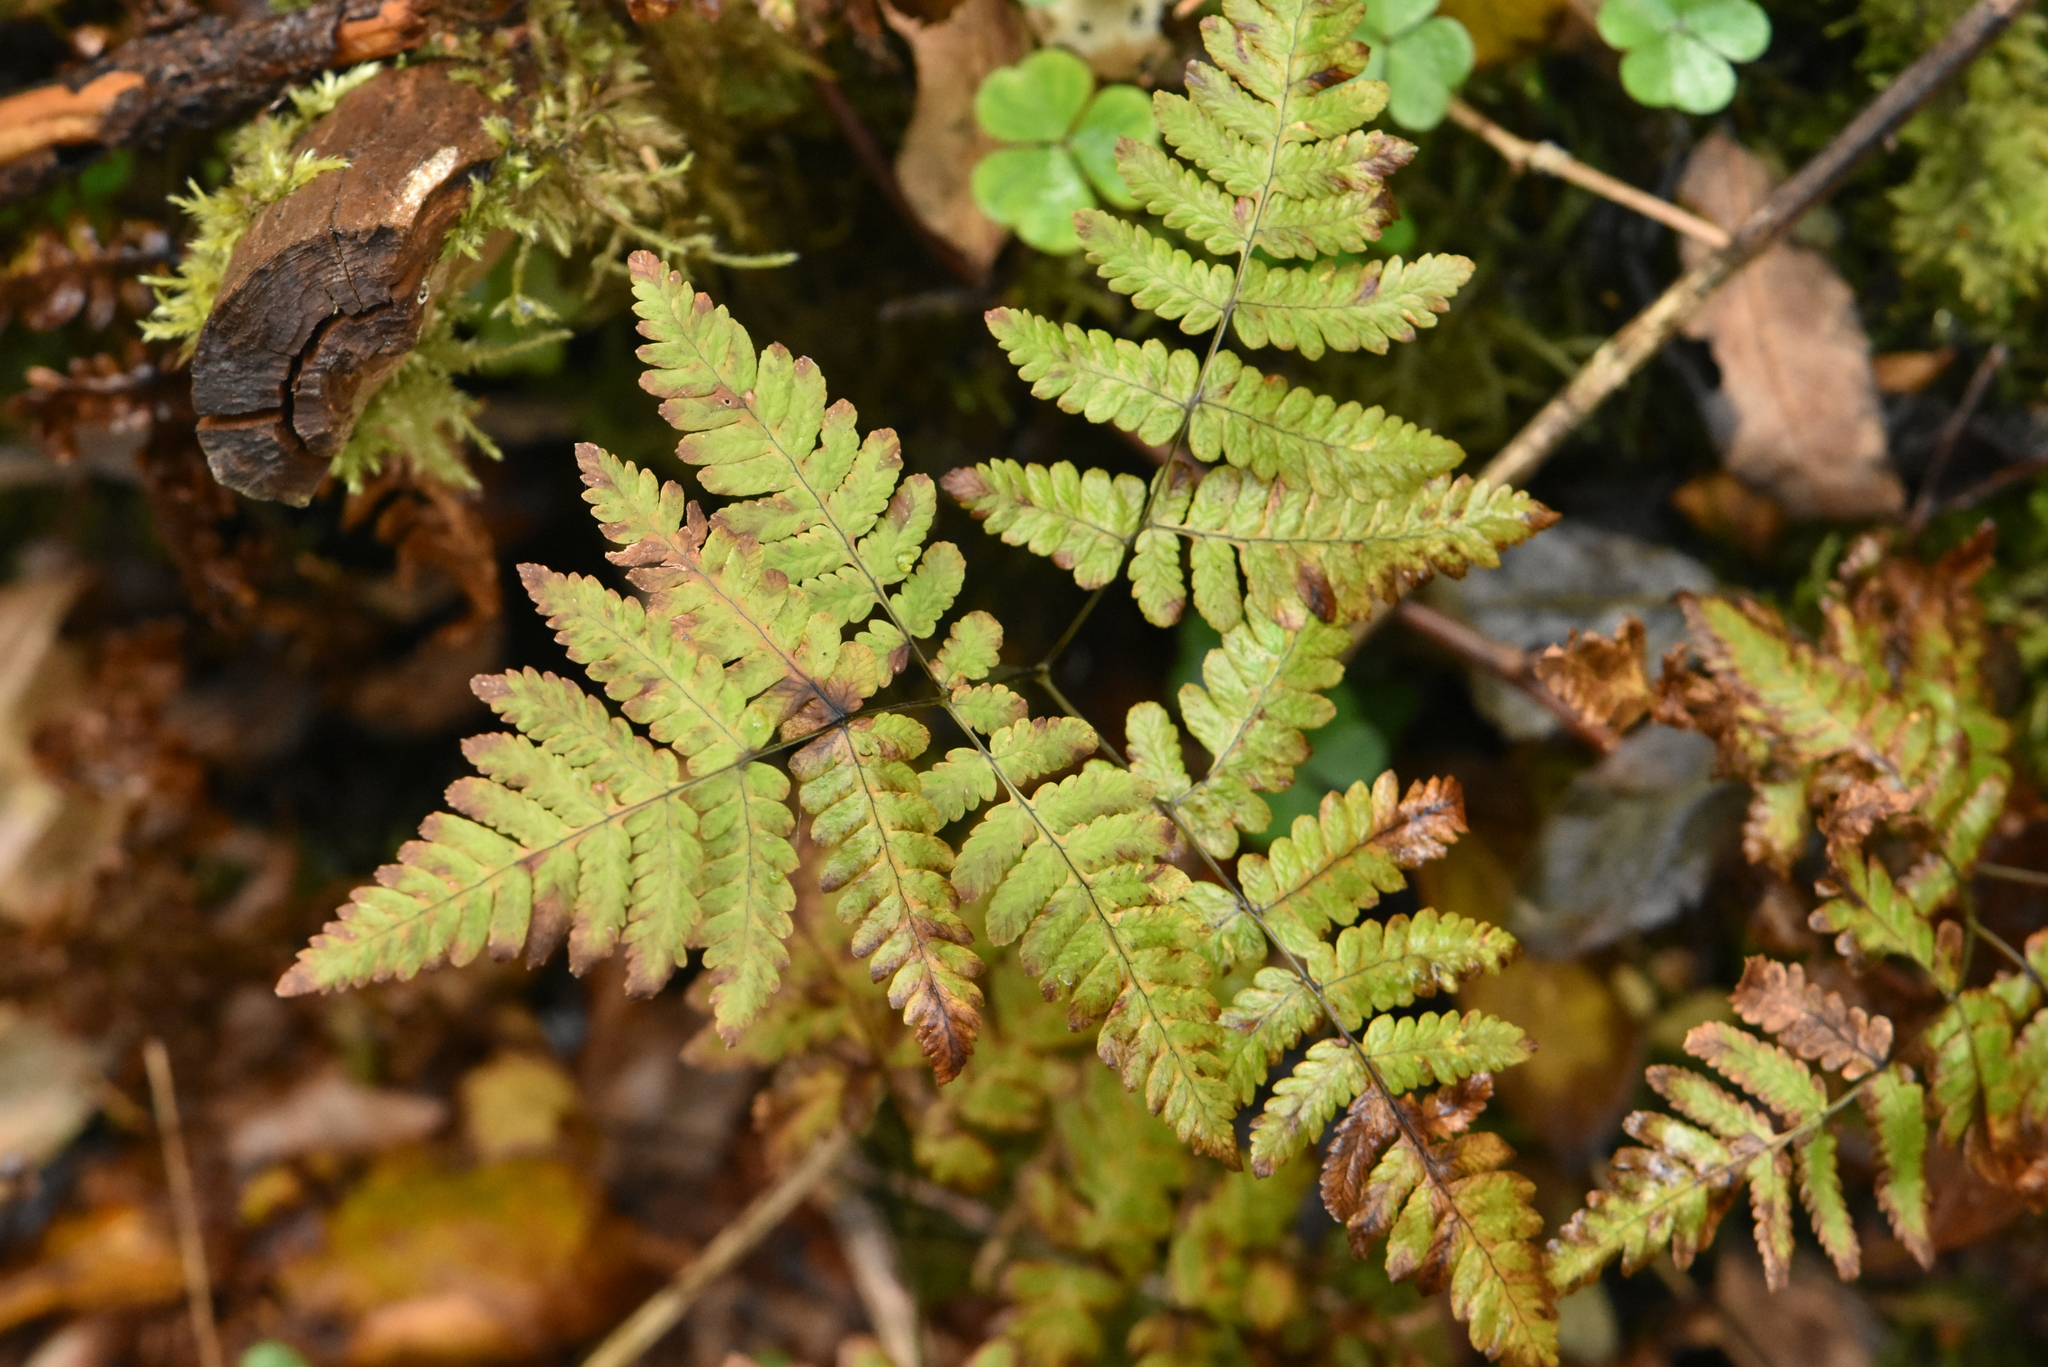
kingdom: Plantae
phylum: Tracheophyta
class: Polypodiopsida
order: Polypodiales
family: Cystopteridaceae
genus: Gymnocarpium
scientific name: Gymnocarpium dryopteris
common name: Oak fern
